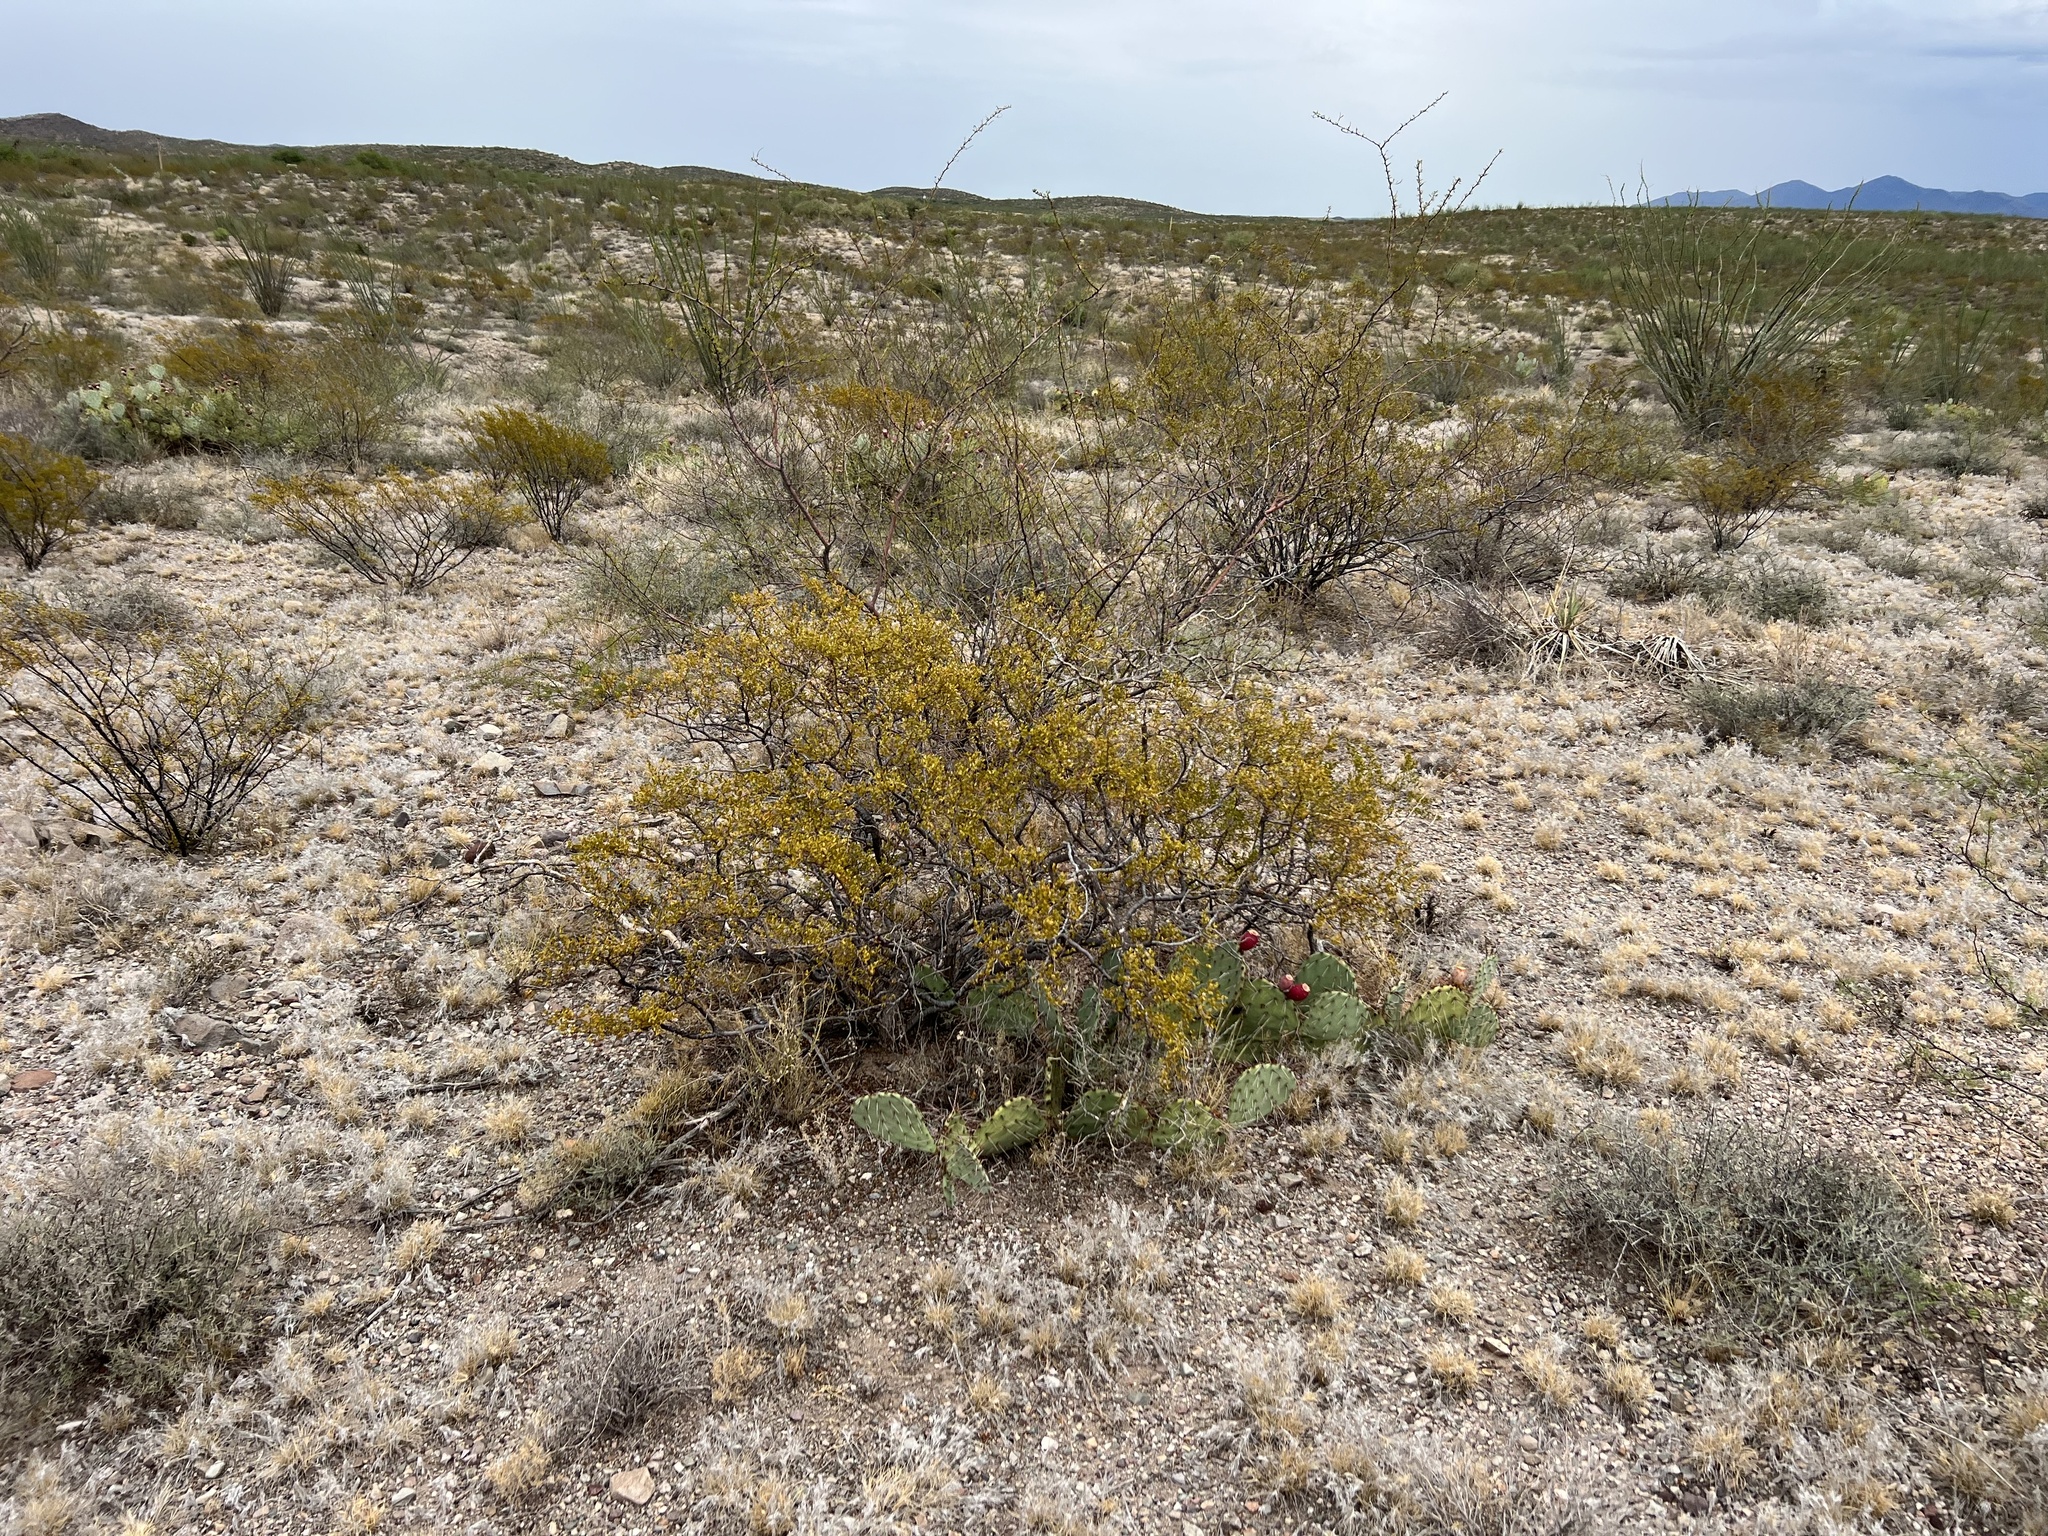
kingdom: Plantae
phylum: Tracheophyta
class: Magnoliopsida
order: Zygophyllales
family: Zygophyllaceae
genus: Larrea
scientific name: Larrea tridentata
